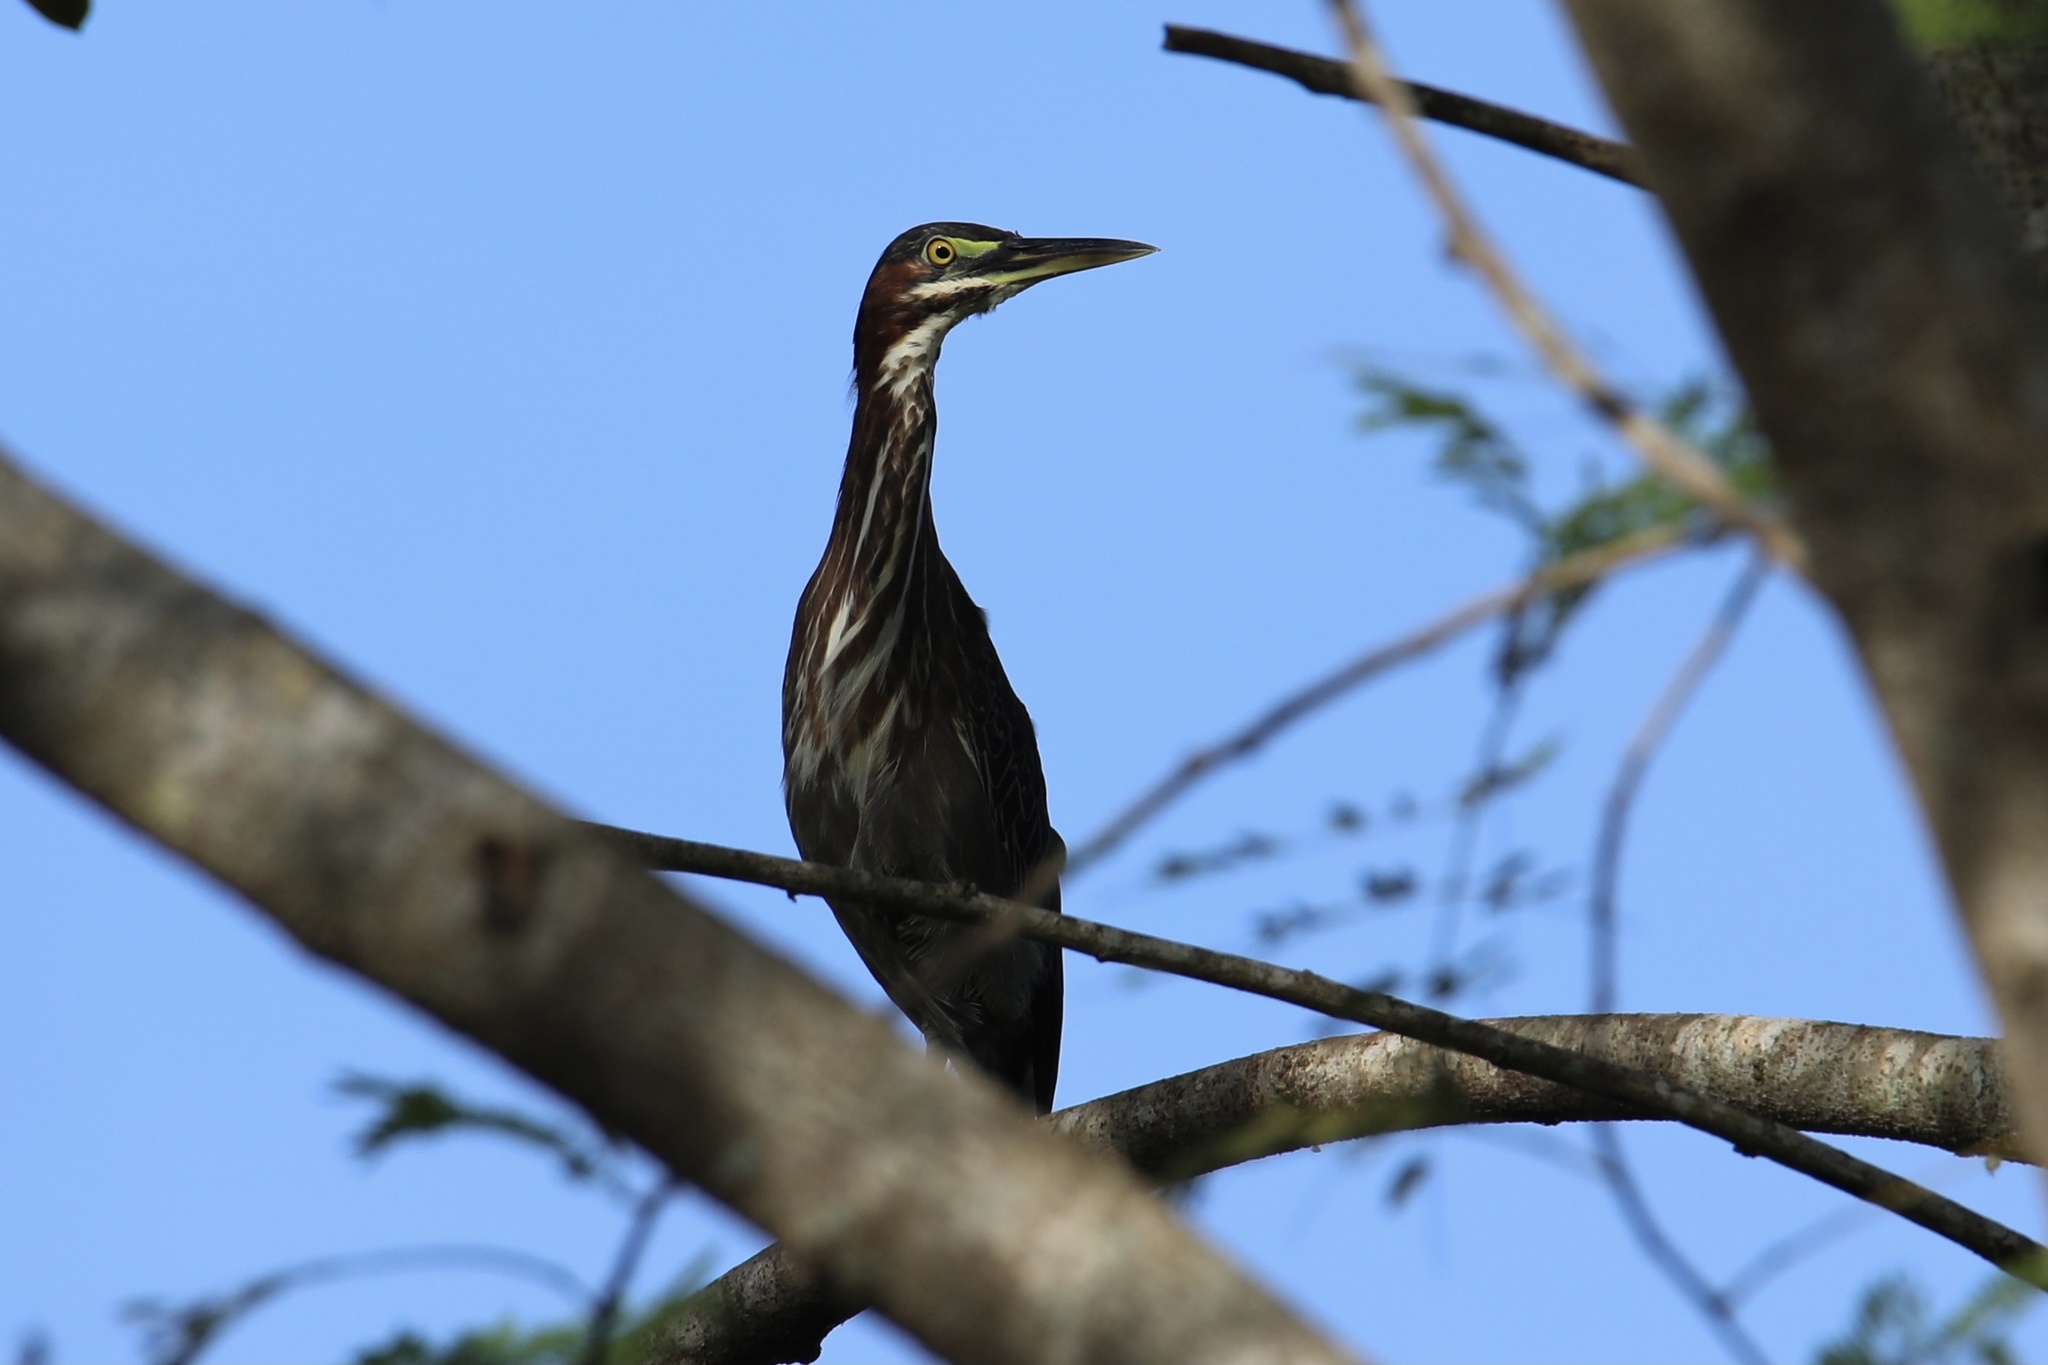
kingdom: Animalia
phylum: Chordata
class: Aves
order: Pelecaniformes
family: Ardeidae
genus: Butorides
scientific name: Butorides virescens
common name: Green heron
